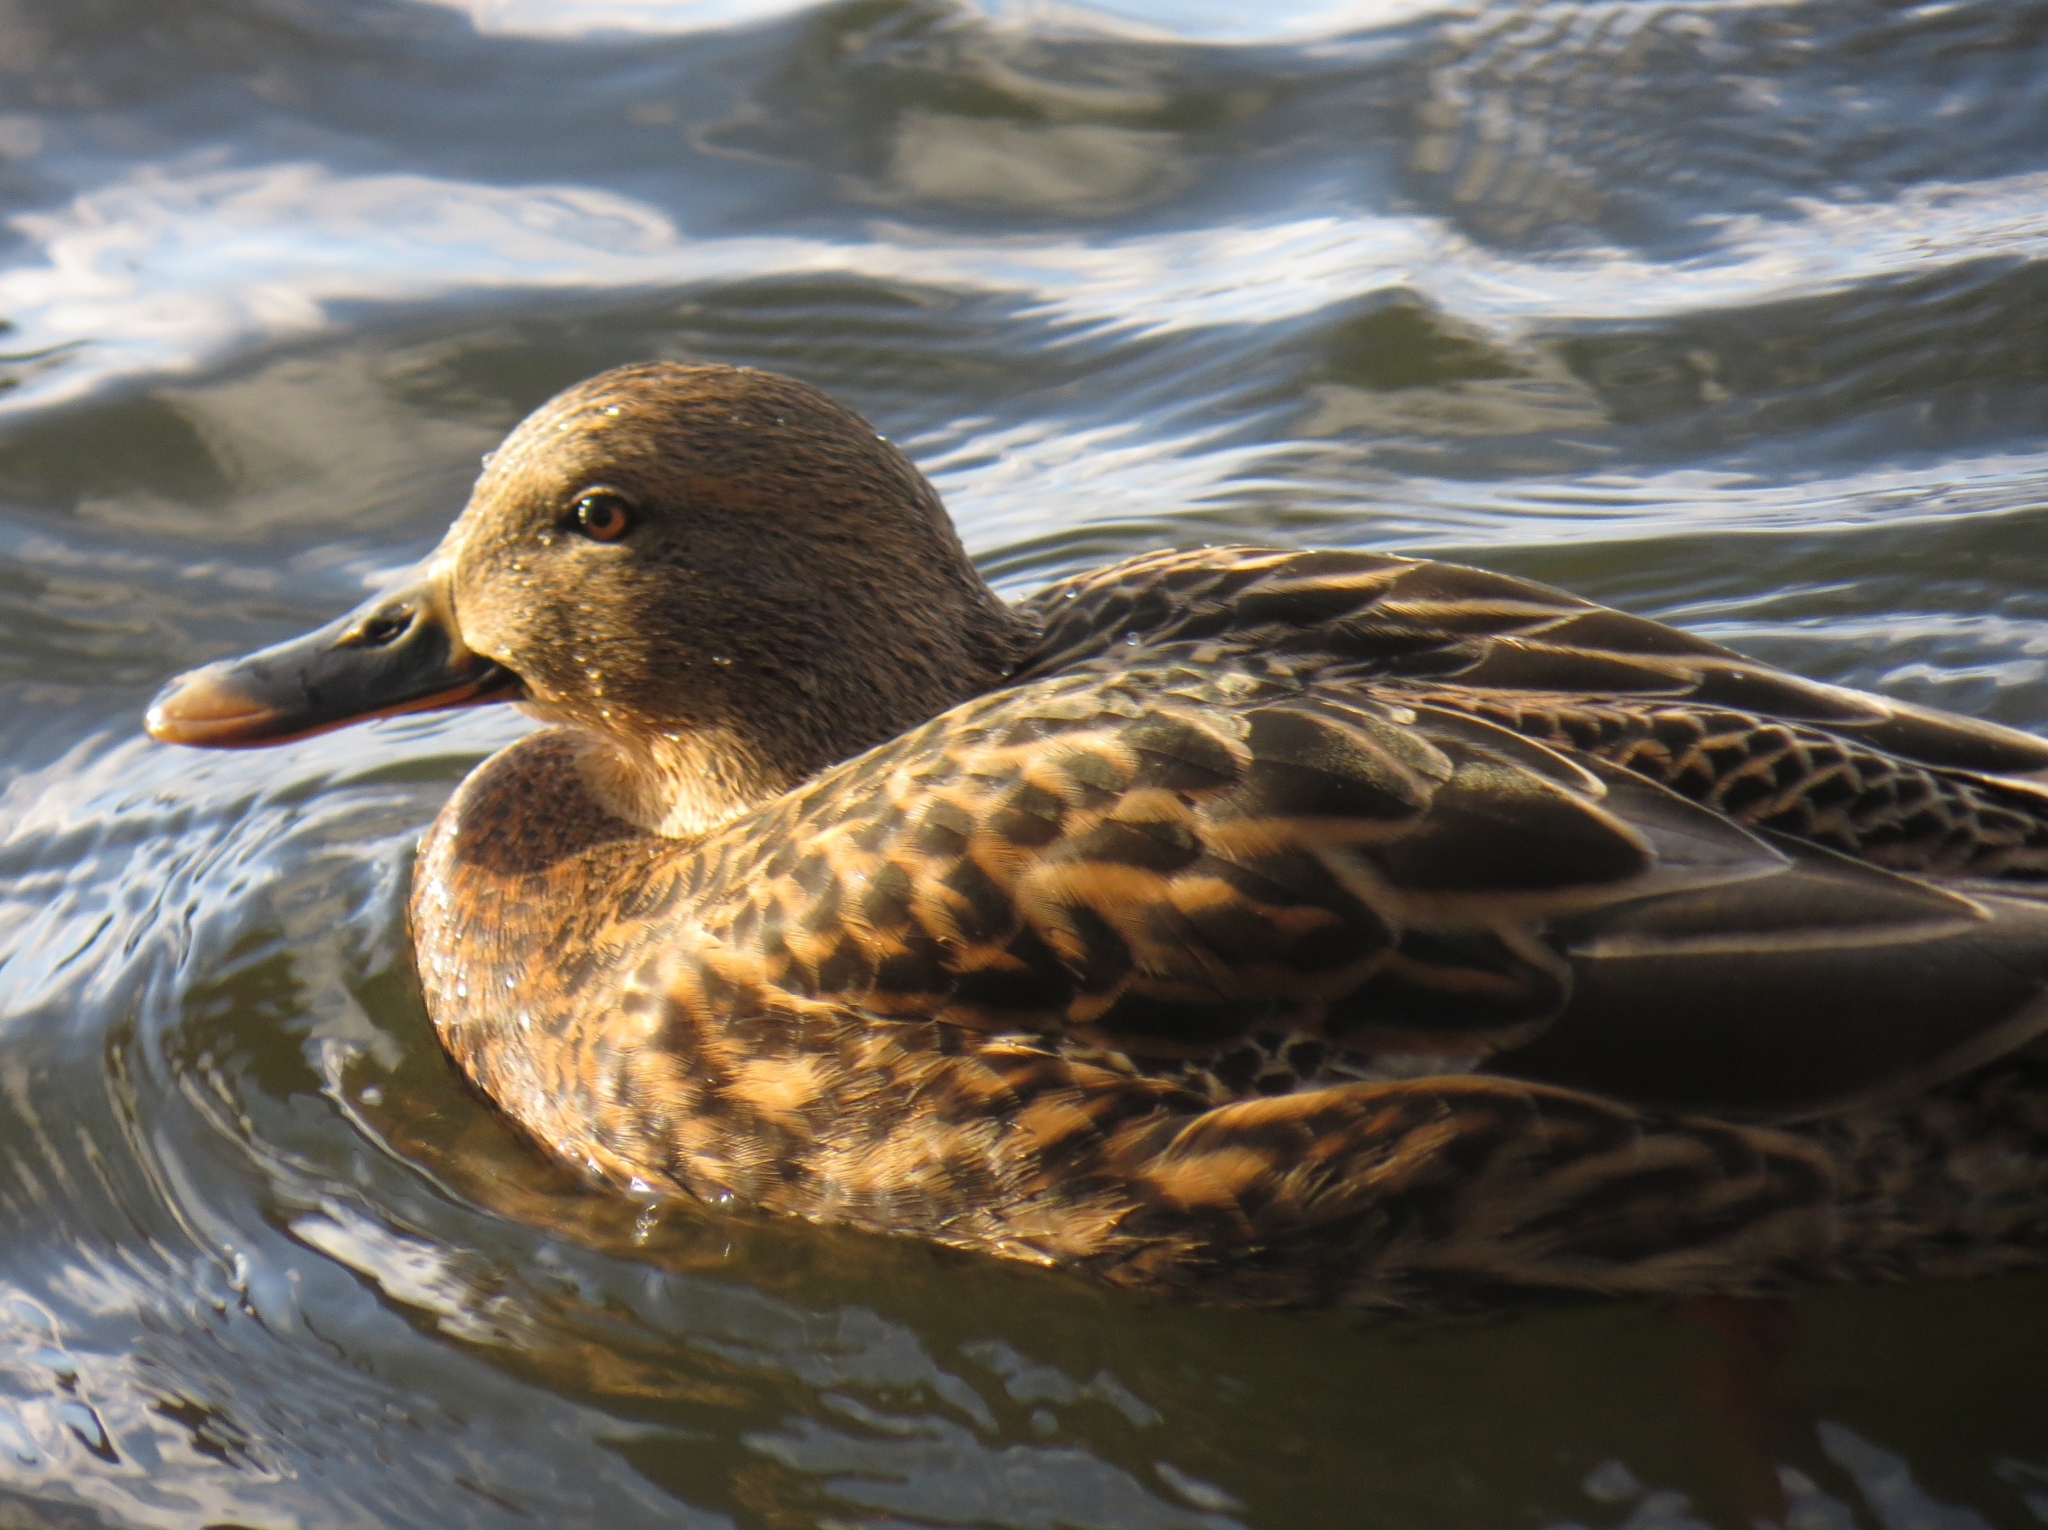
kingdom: Animalia
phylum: Chordata
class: Aves
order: Anseriformes
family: Anatidae
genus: Anas
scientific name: Anas platyrhynchos
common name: Mallard
